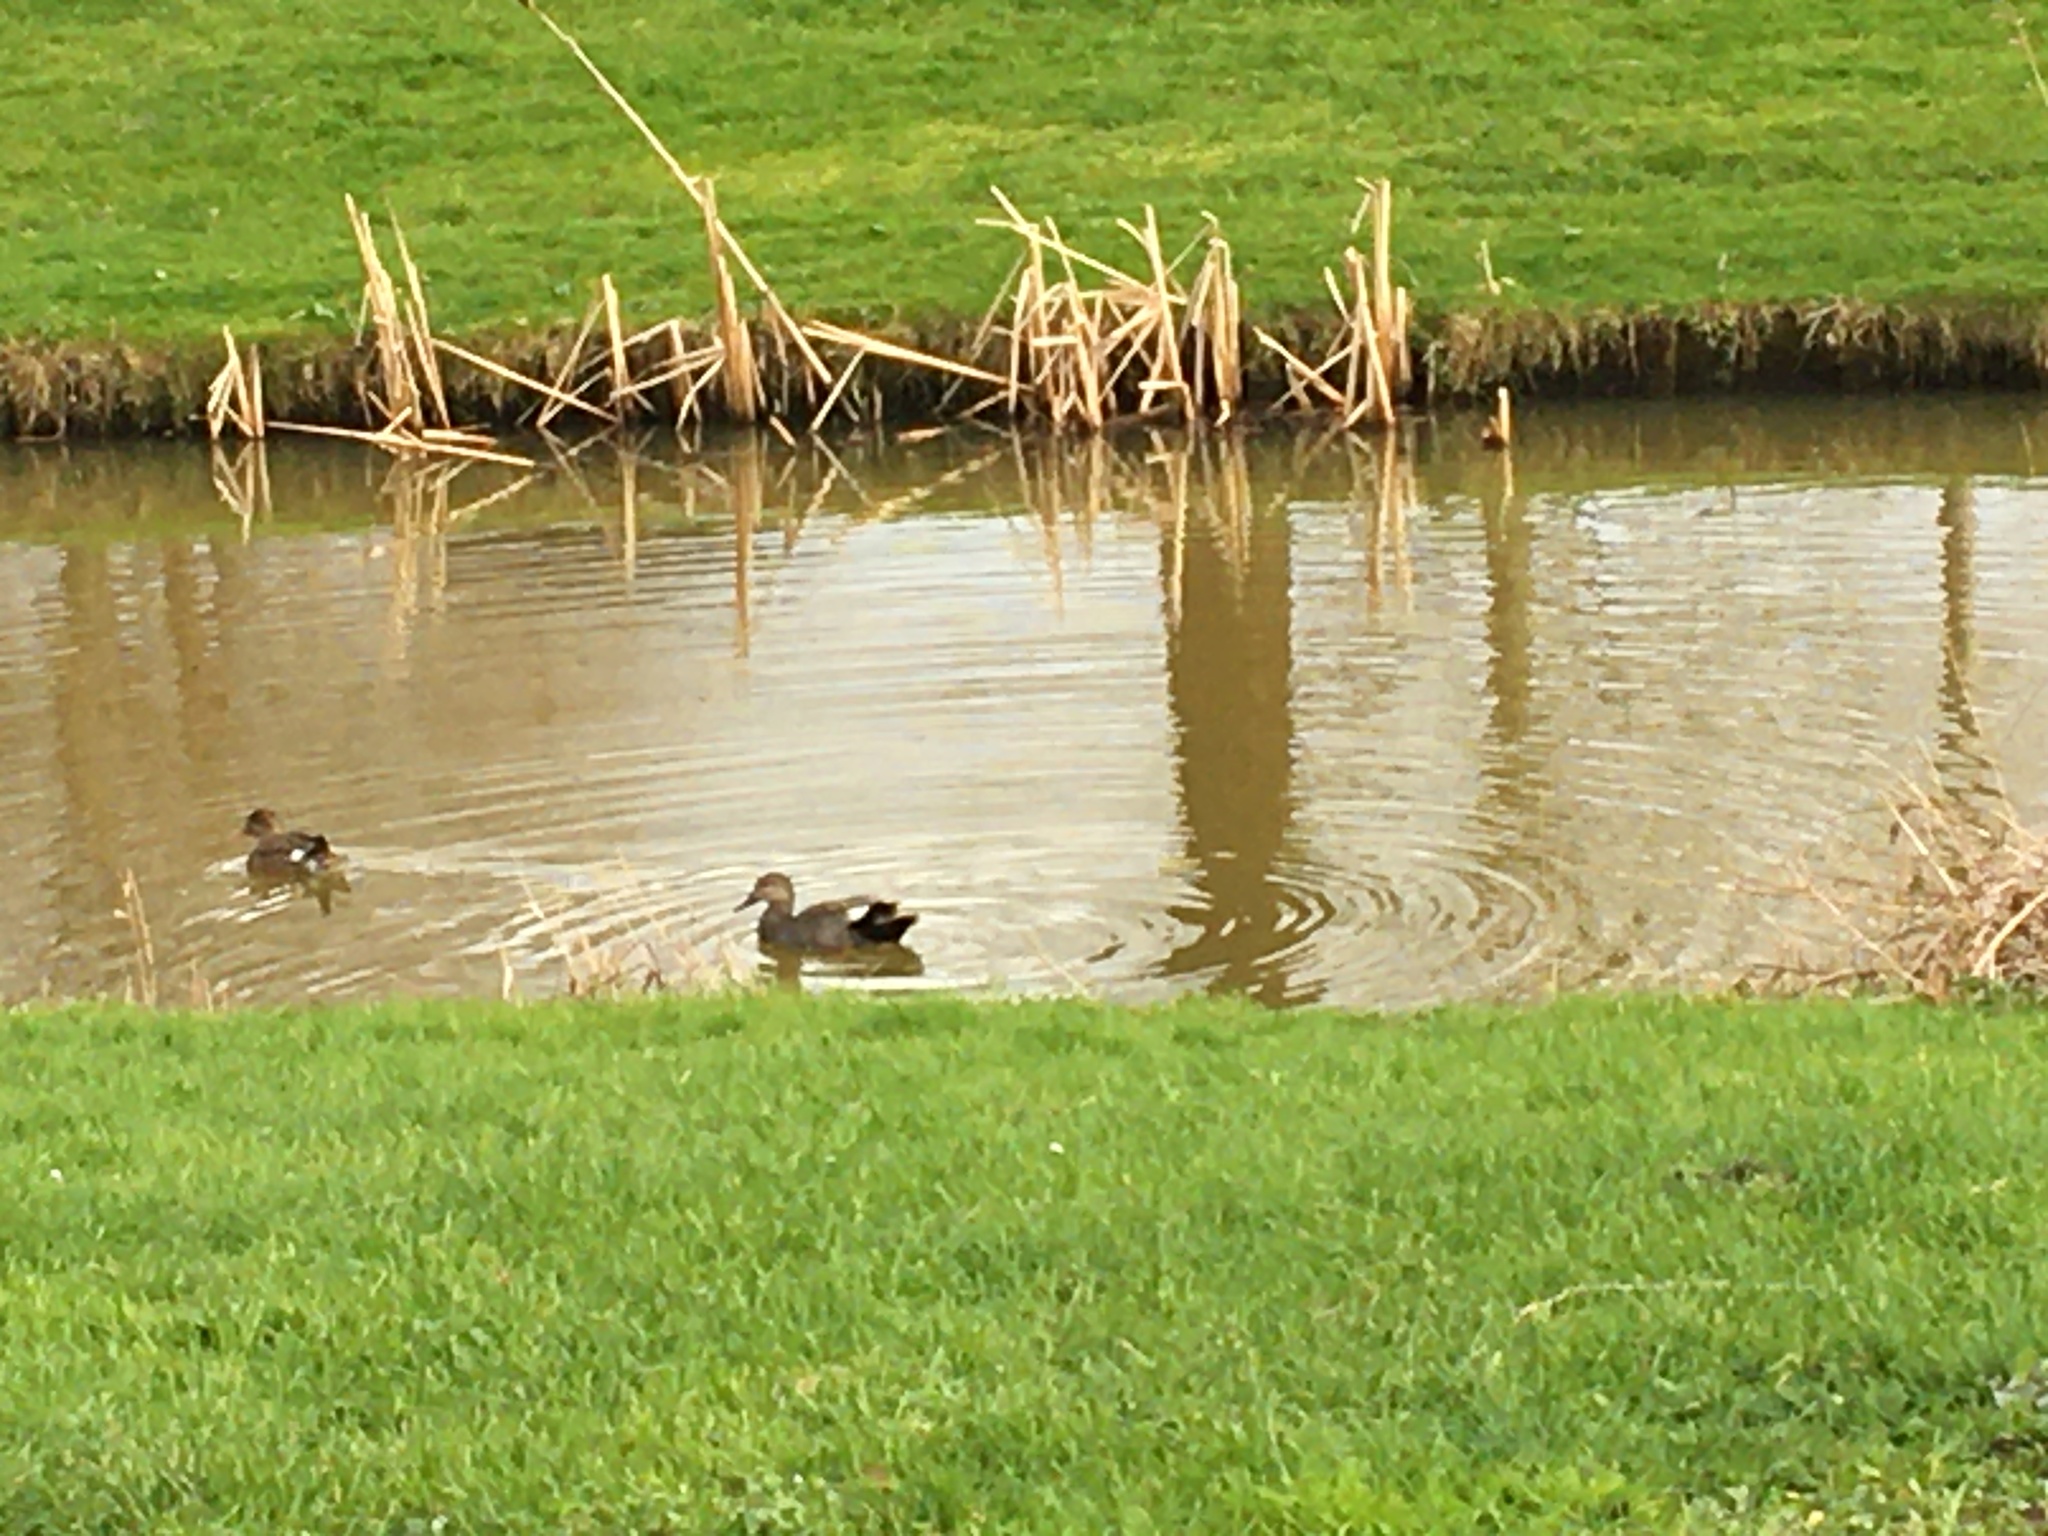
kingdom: Animalia
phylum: Chordata
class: Aves
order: Anseriformes
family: Anatidae
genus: Mareca
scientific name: Mareca strepera
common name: Gadwall
